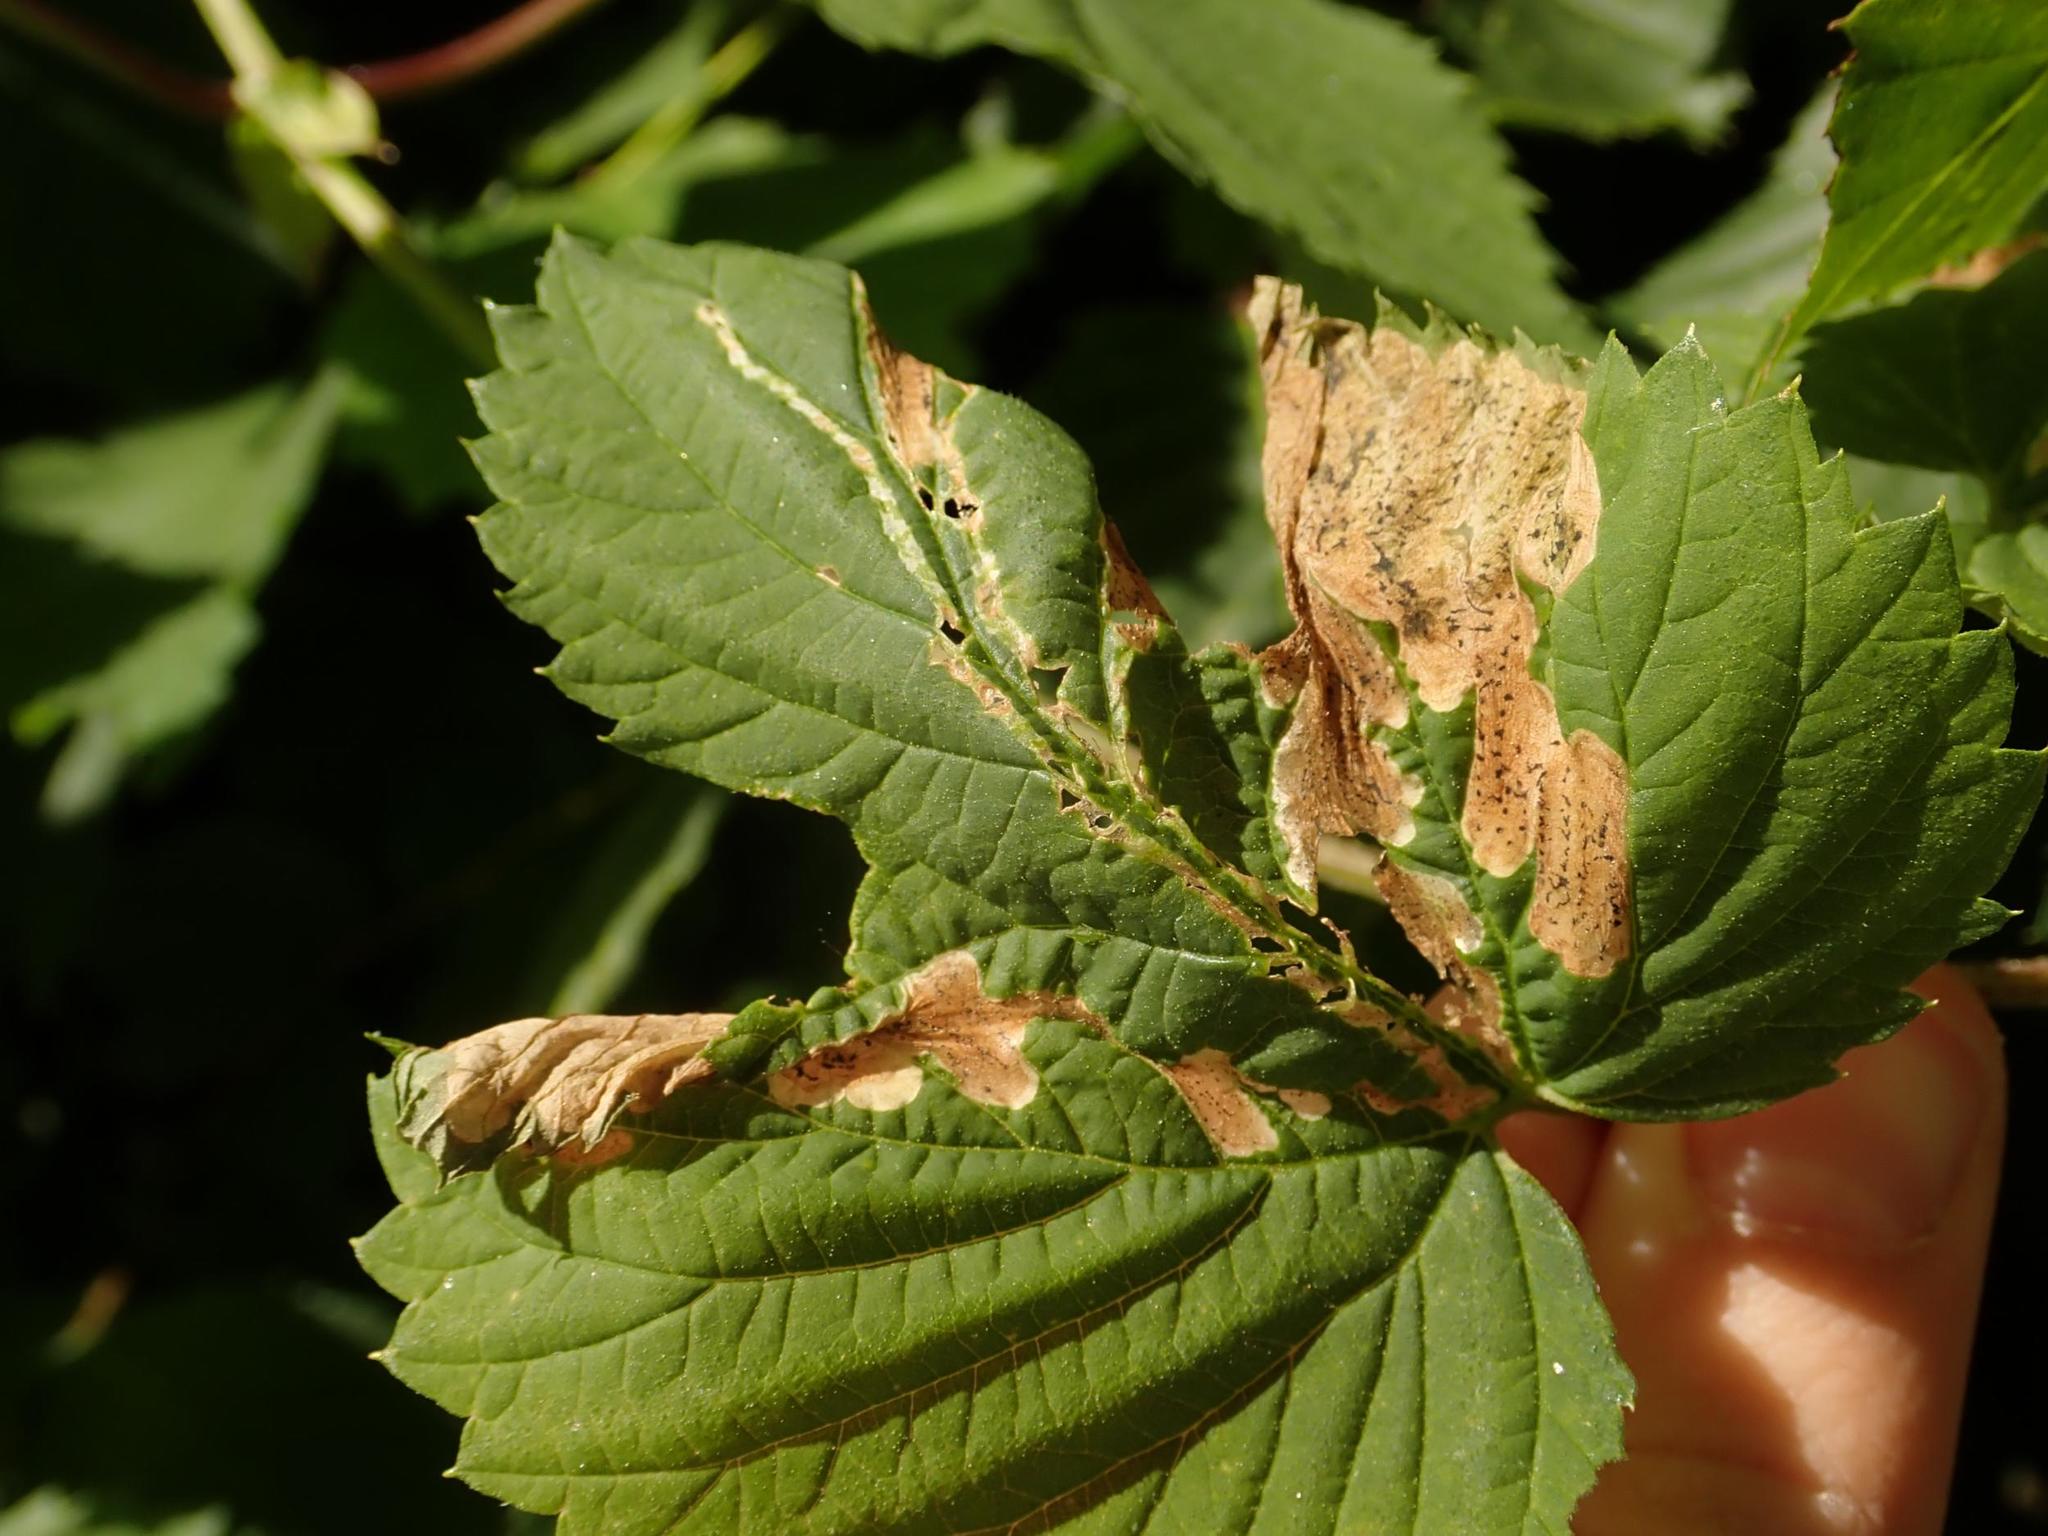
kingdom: Animalia
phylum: Arthropoda
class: Insecta
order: Diptera
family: Agromyzidae
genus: Agromyza
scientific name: Agromyza igniceps
